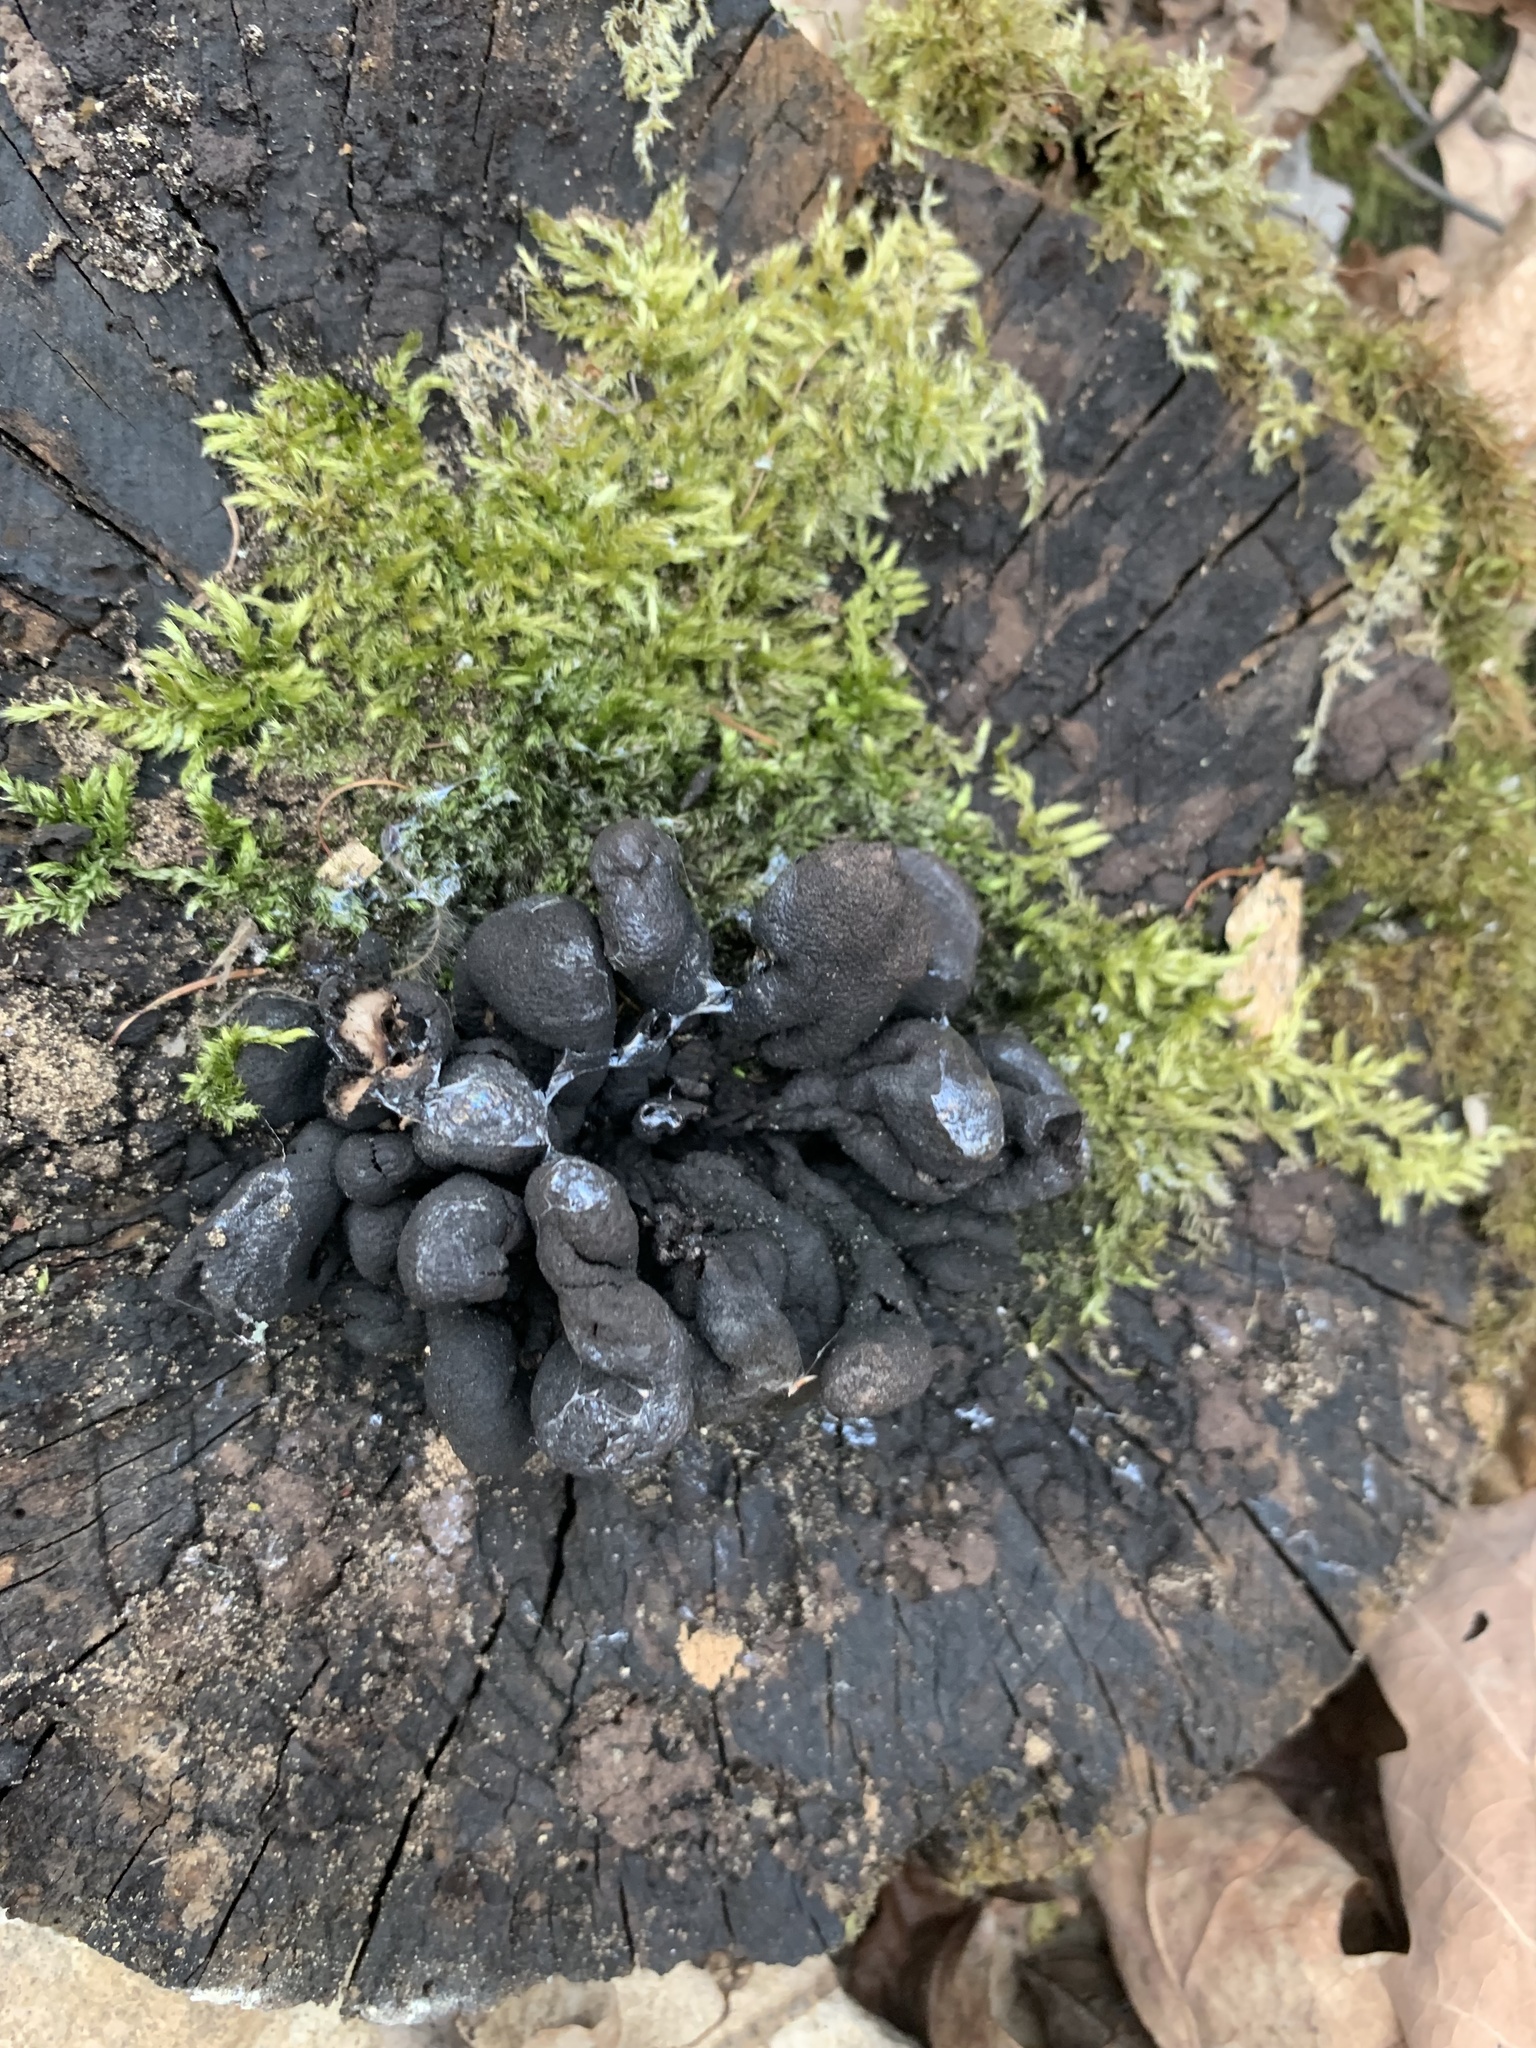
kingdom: Fungi
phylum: Ascomycota
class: Sordariomycetes
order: Xylariales
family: Xylariaceae
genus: Xylaria
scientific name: Xylaria polymorpha
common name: Dead man's fingers
